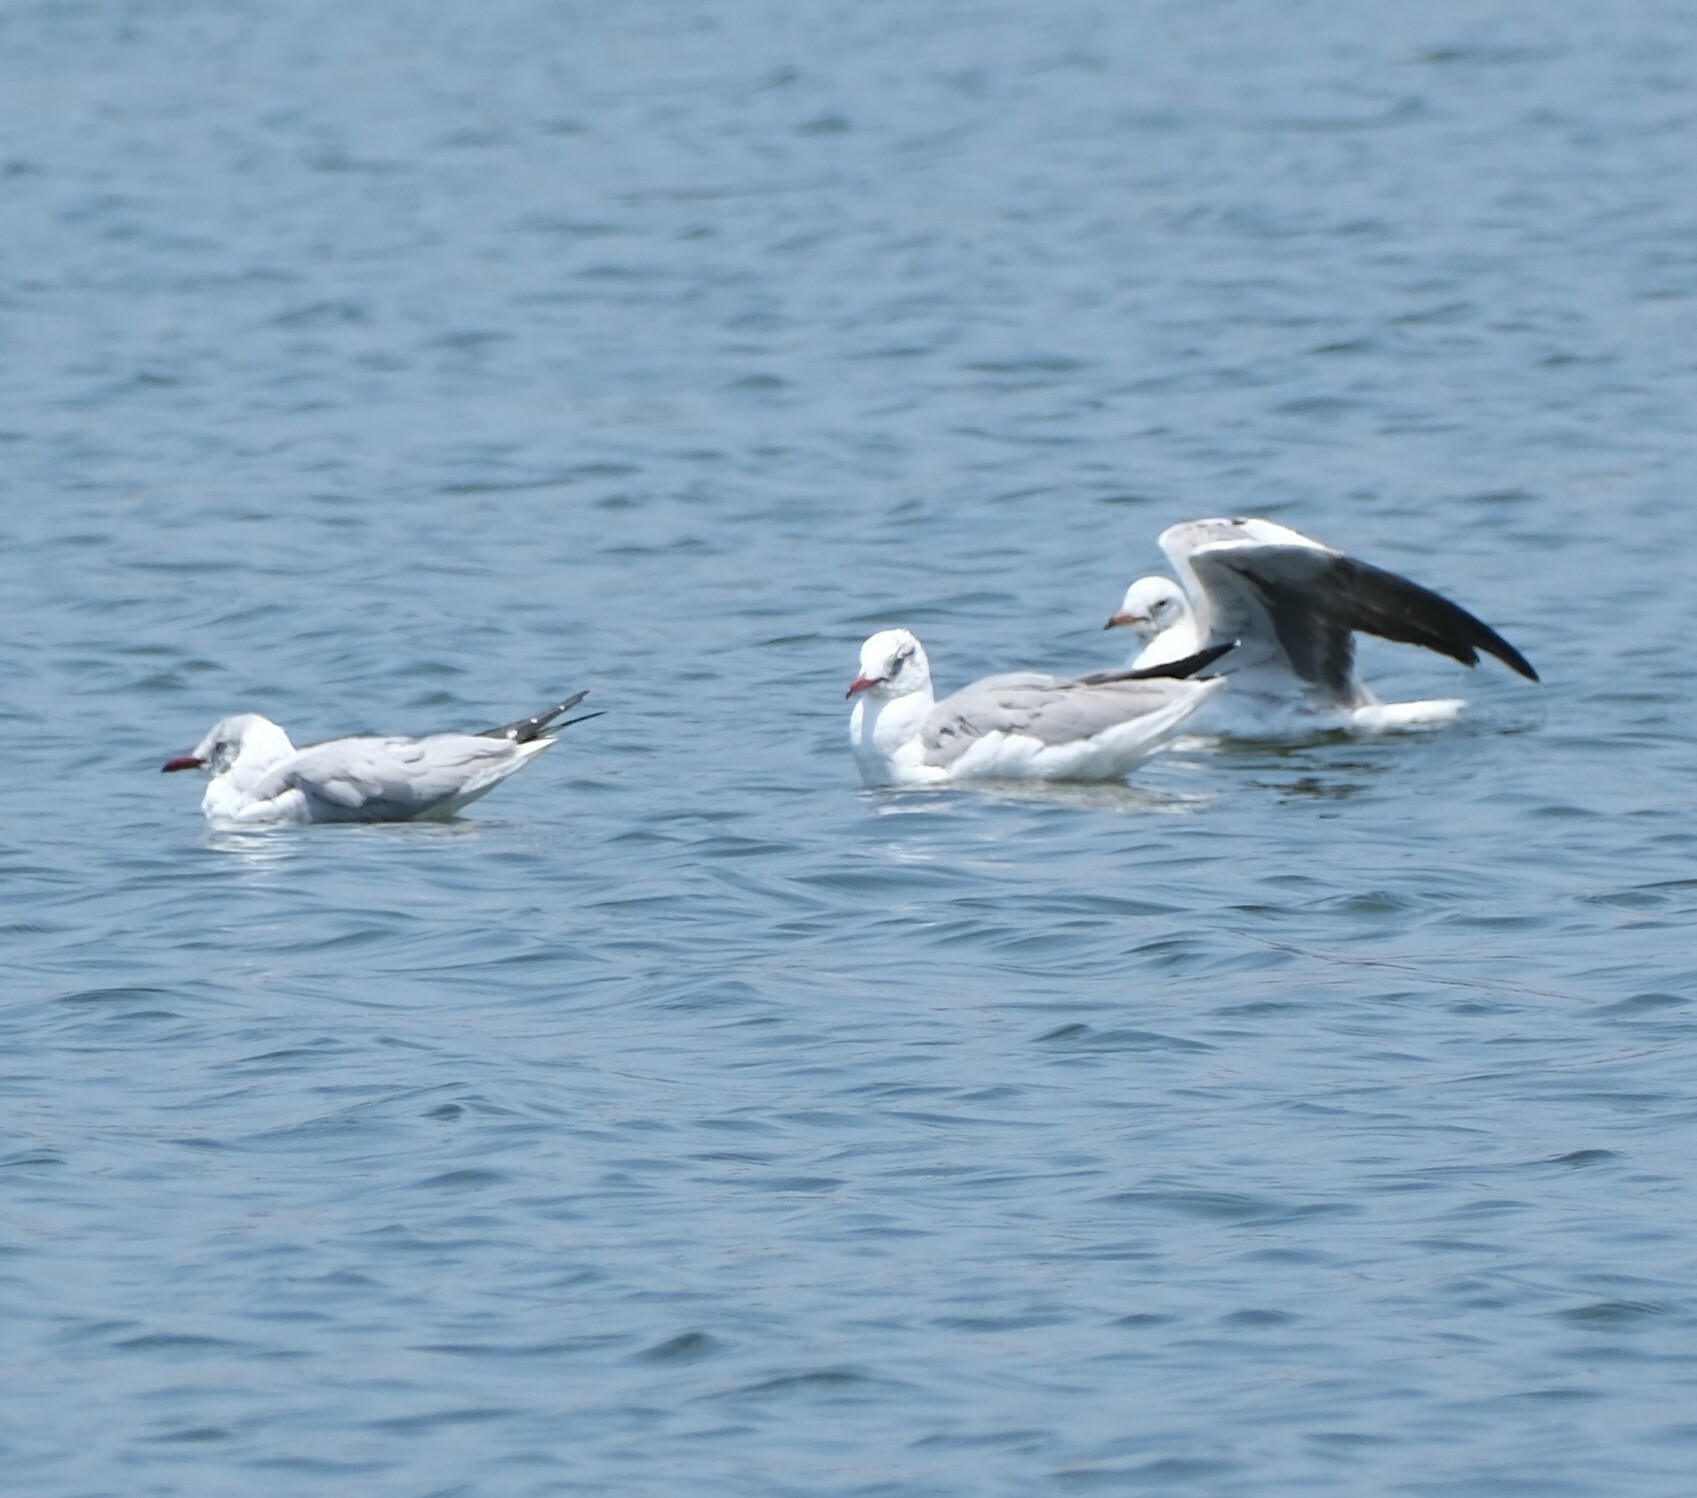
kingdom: Animalia
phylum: Chordata
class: Aves
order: Charadriiformes
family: Laridae
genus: Chroicocephalus
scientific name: Chroicocephalus cirrocephalus
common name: Grey-headed gull
